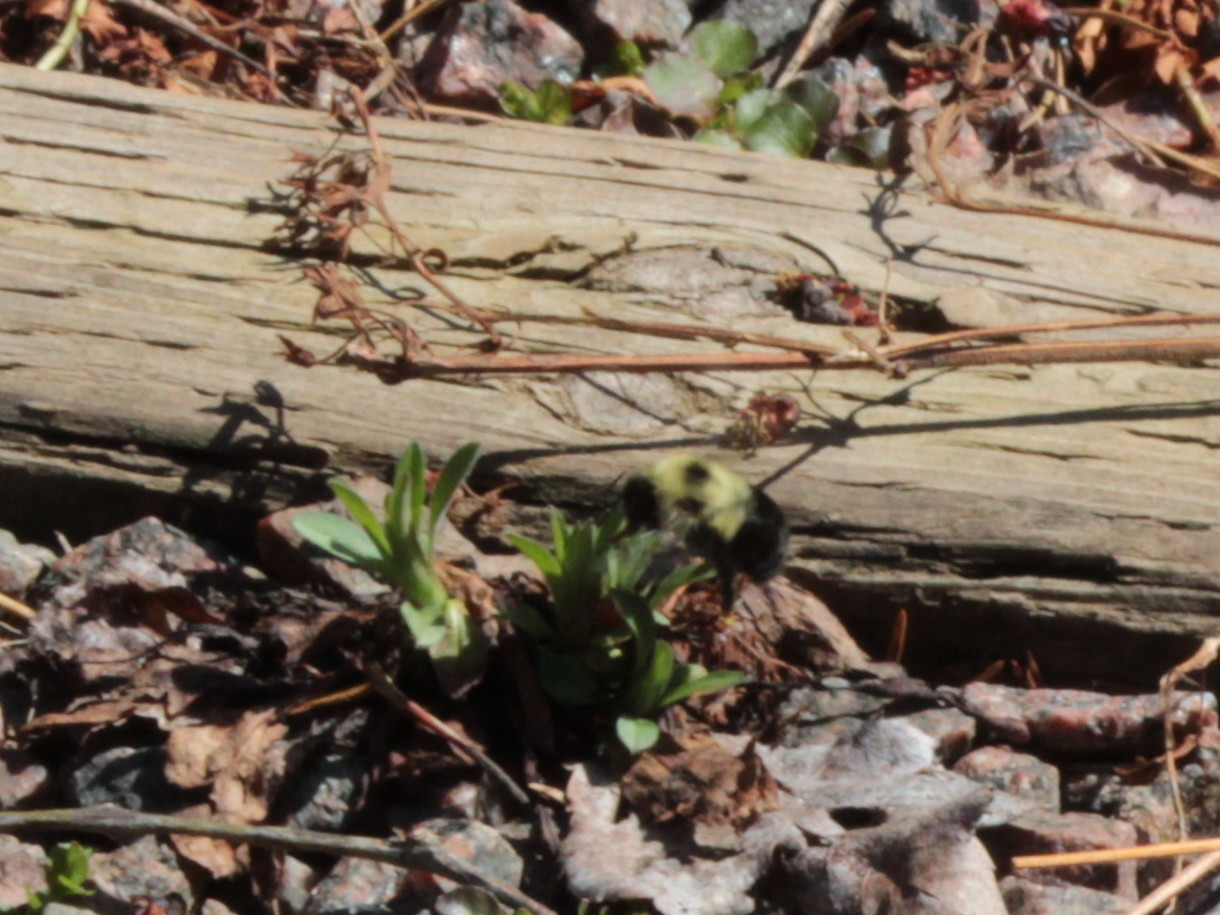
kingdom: Animalia
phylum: Arthropoda
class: Insecta
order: Hymenoptera
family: Apidae
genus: Bombus
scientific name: Bombus bimaculatus
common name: Two-spotted bumble bee
